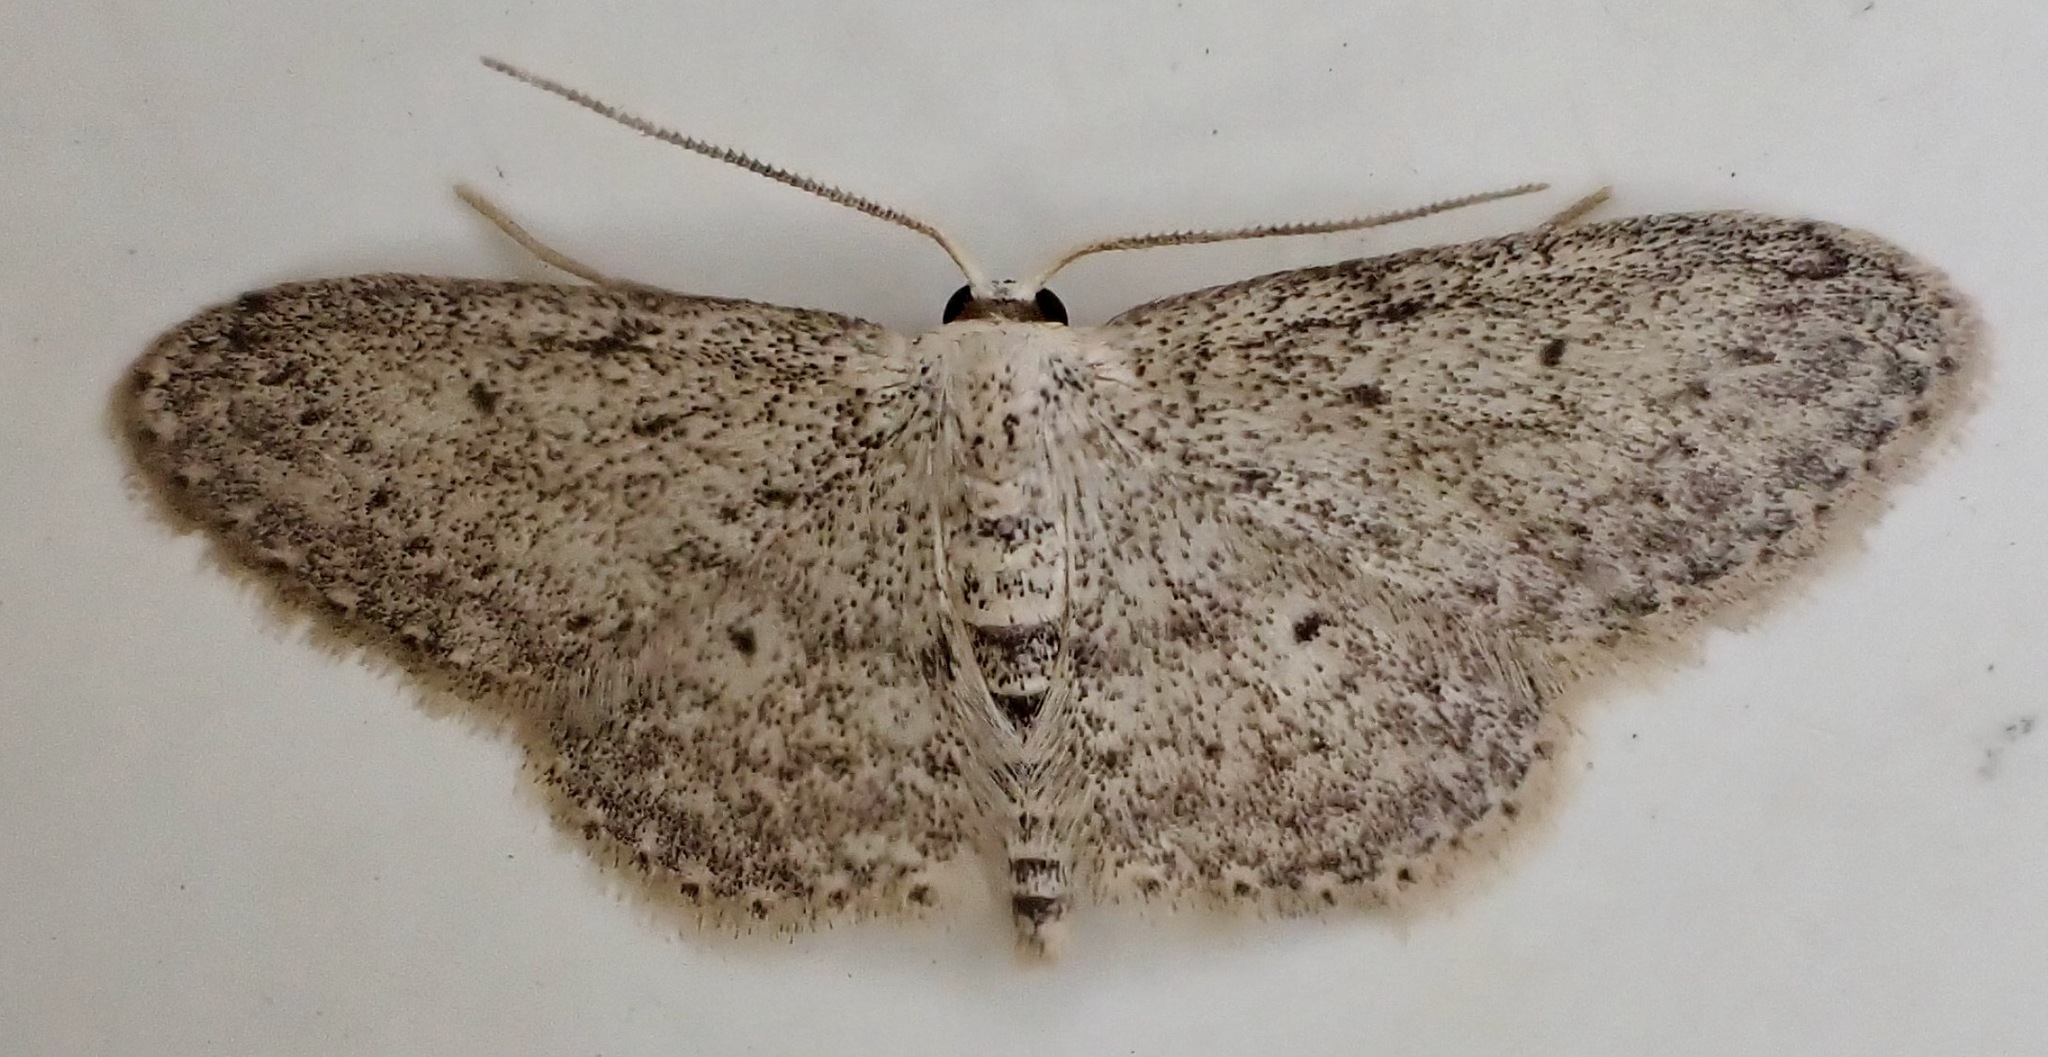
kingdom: Animalia
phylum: Arthropoda
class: Insecta
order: Lepidoptera
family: Geometridae
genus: Idaea
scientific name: Idaea seriata
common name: Small dusty wave
